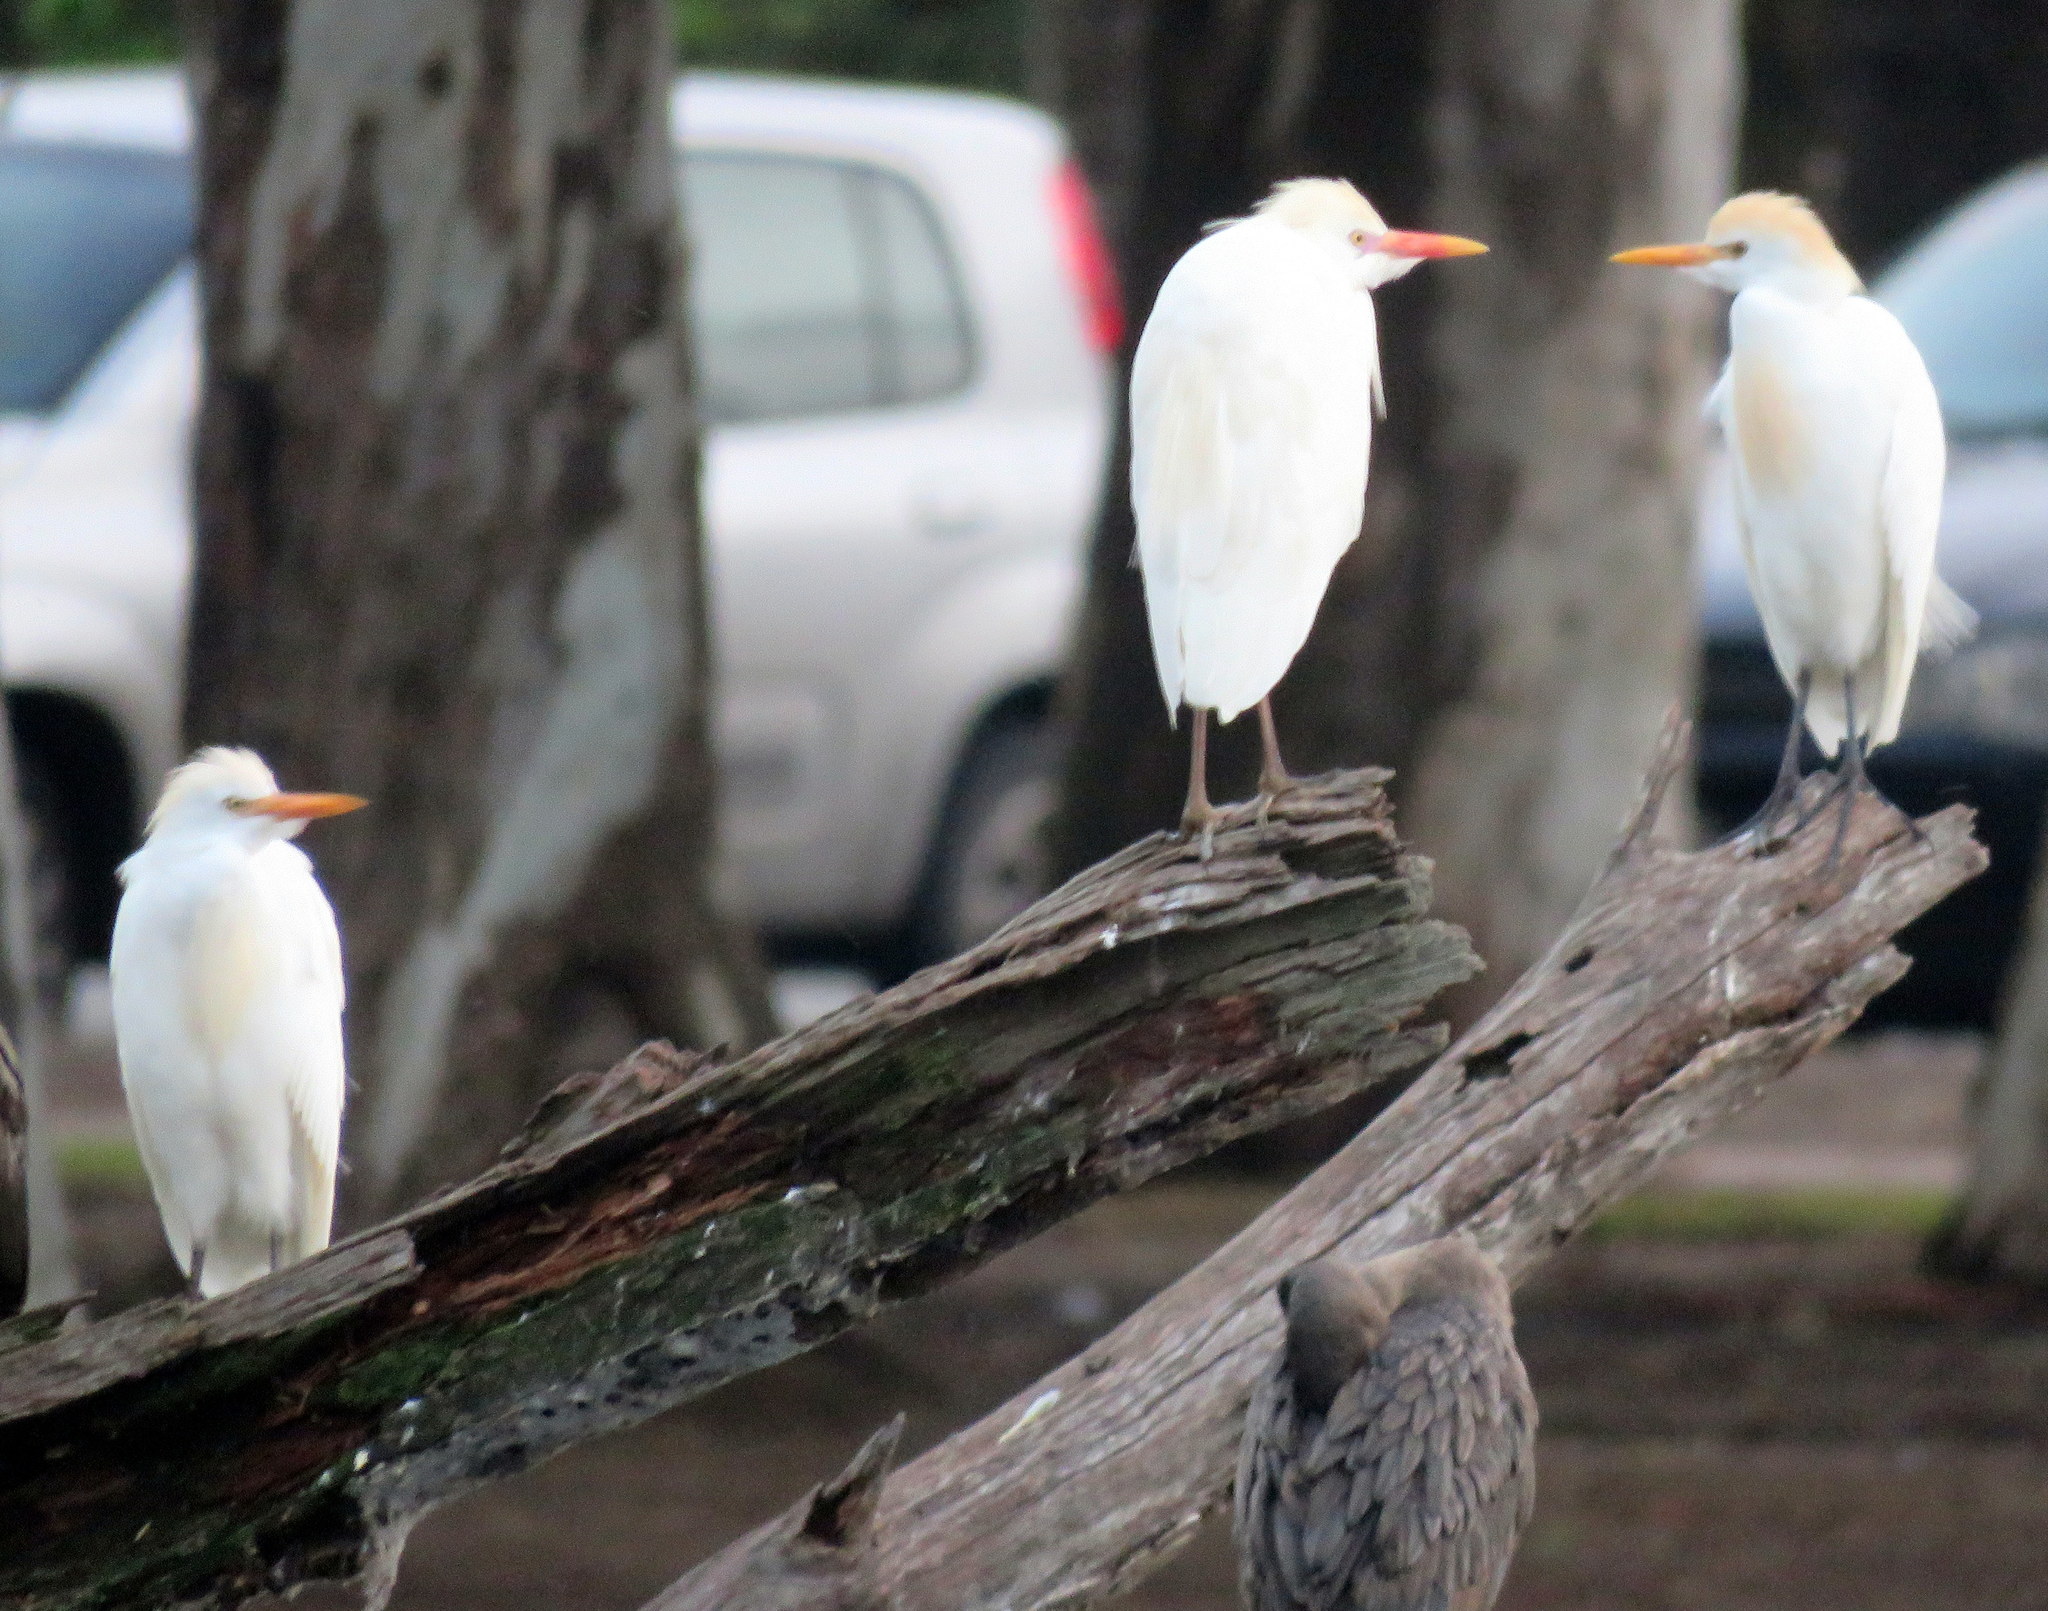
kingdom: Animalia
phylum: Chordata
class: Aves
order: Pelecaniformes
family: Ardeidae
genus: Bubulcus
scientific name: Bubulcus ibis
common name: Cattle egret
